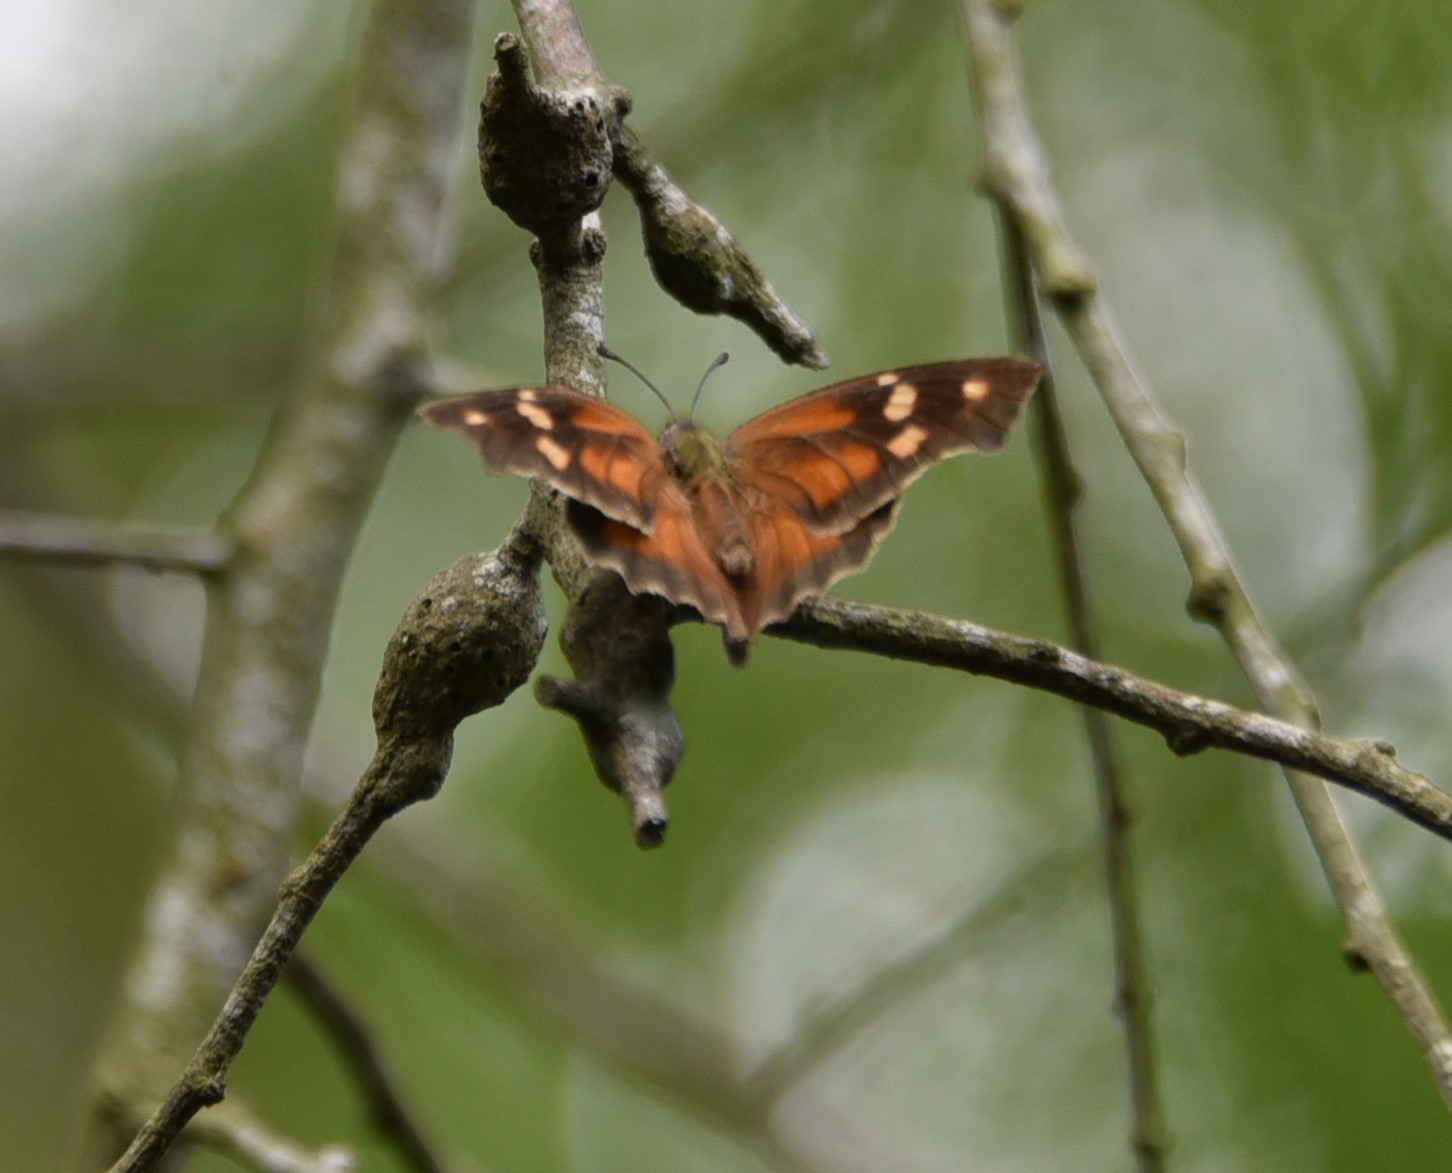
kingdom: Animalia
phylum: Arthropoda
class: Insecta
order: Lepidoptera
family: Nymphalidae
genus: Libytheana
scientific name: Libytheana carinenta
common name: American snout
